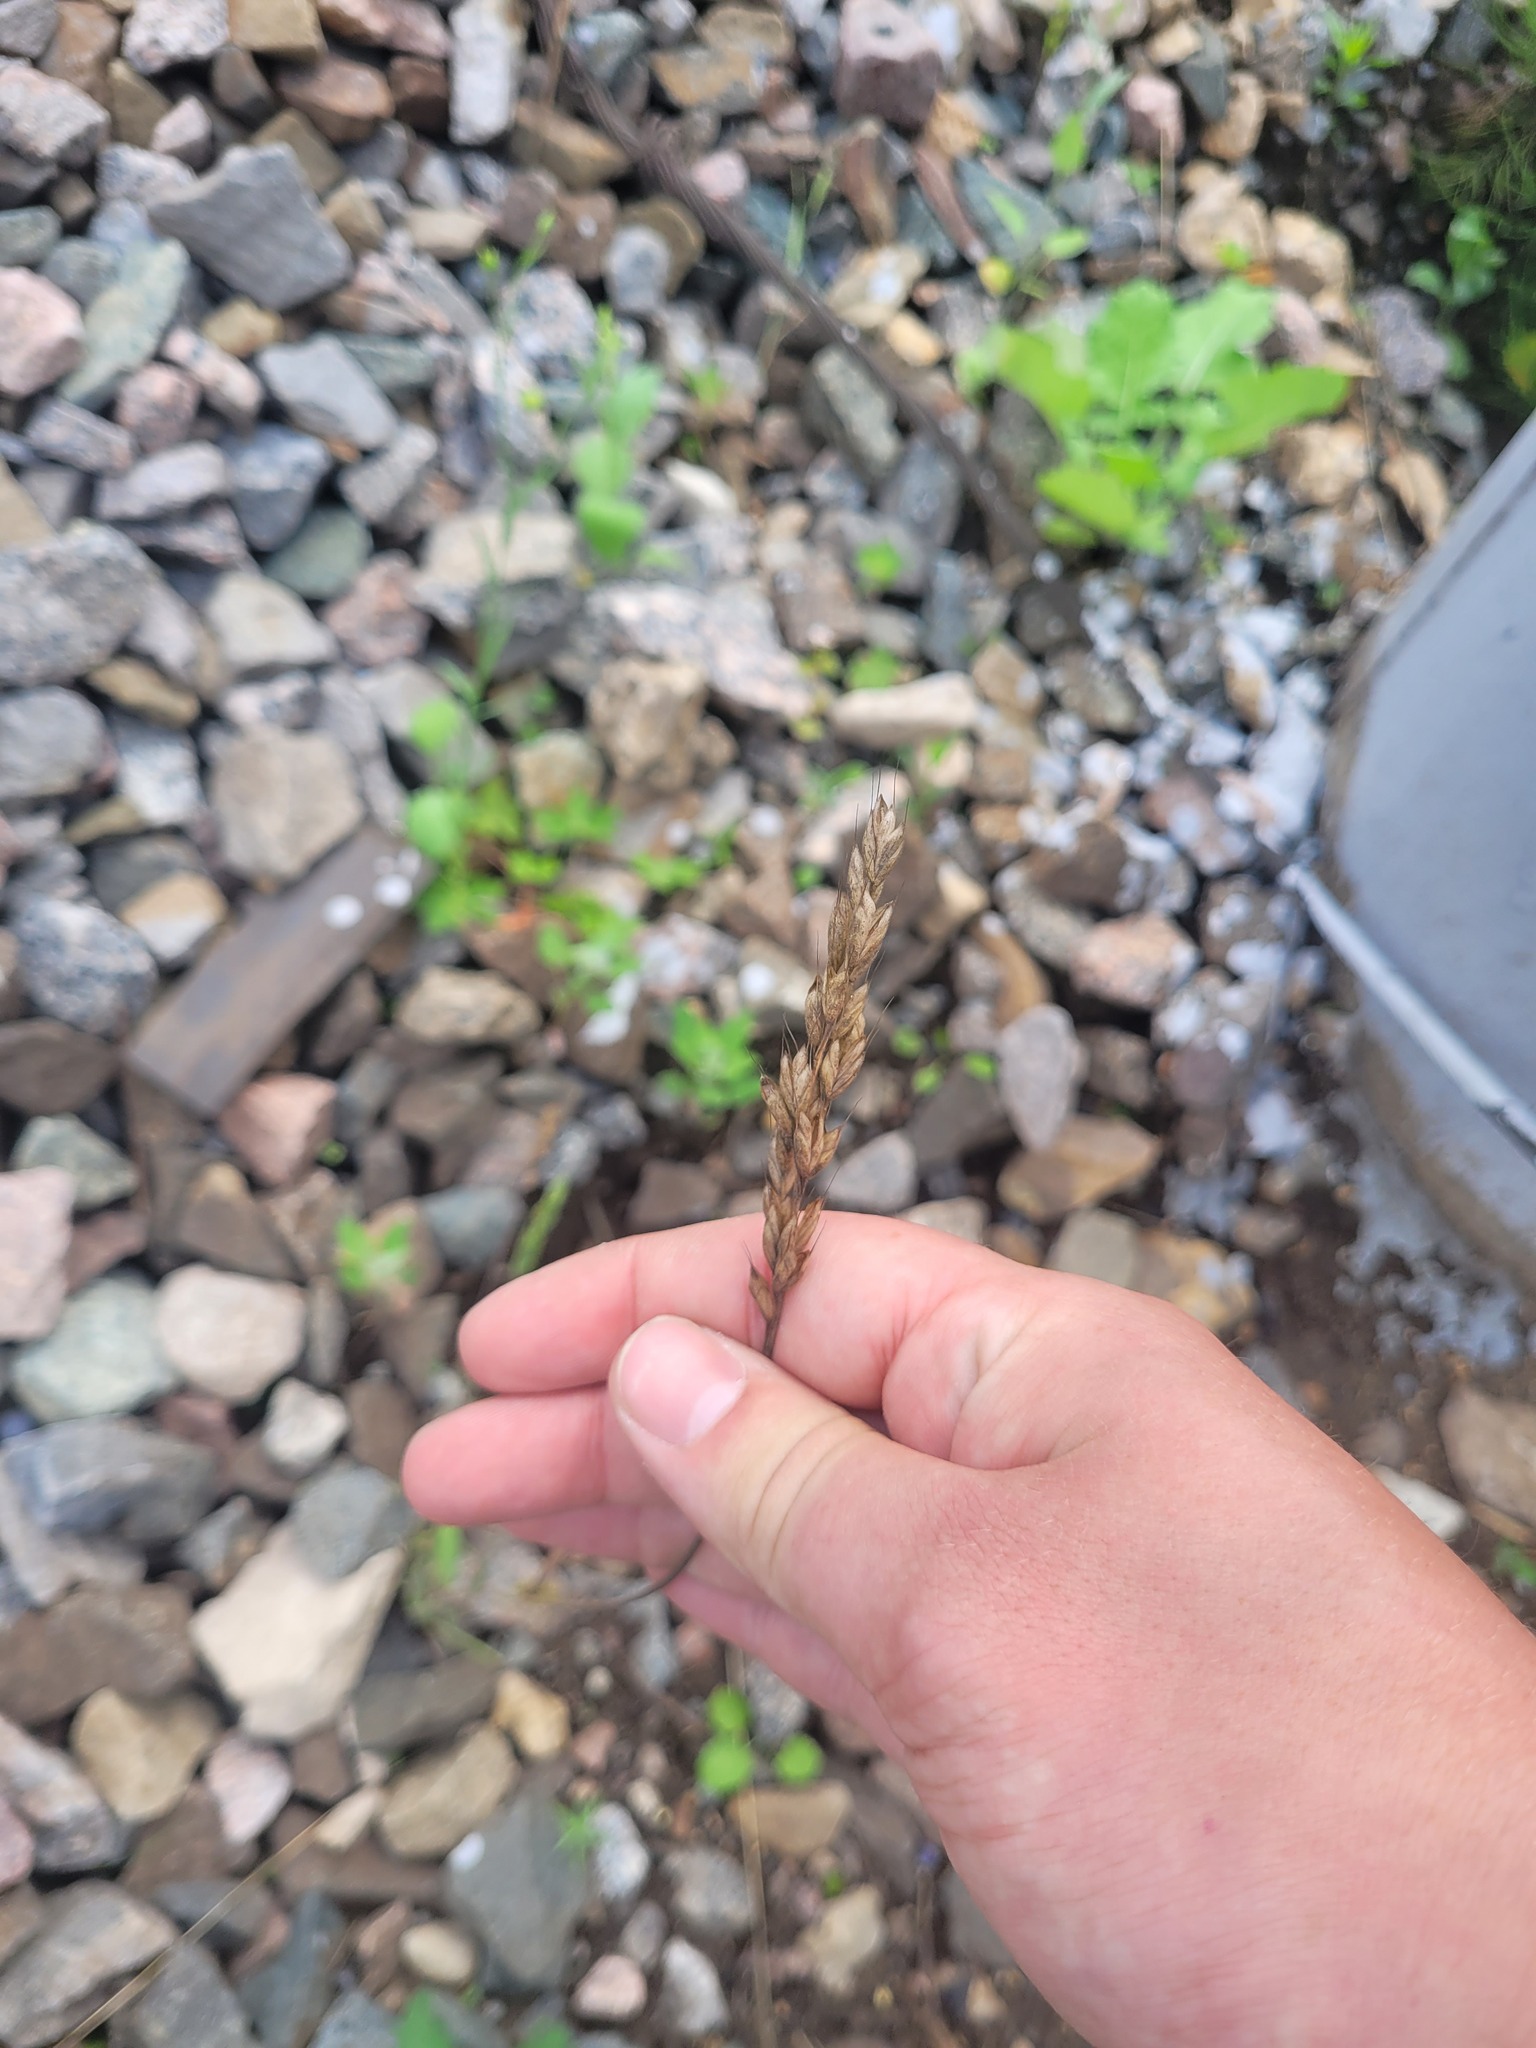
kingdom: Plantae
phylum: Tracheophyta
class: Liliopsida
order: Poales
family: Poaceae
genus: Bromus
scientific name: Bromus hordeaceus
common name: Soft brome
